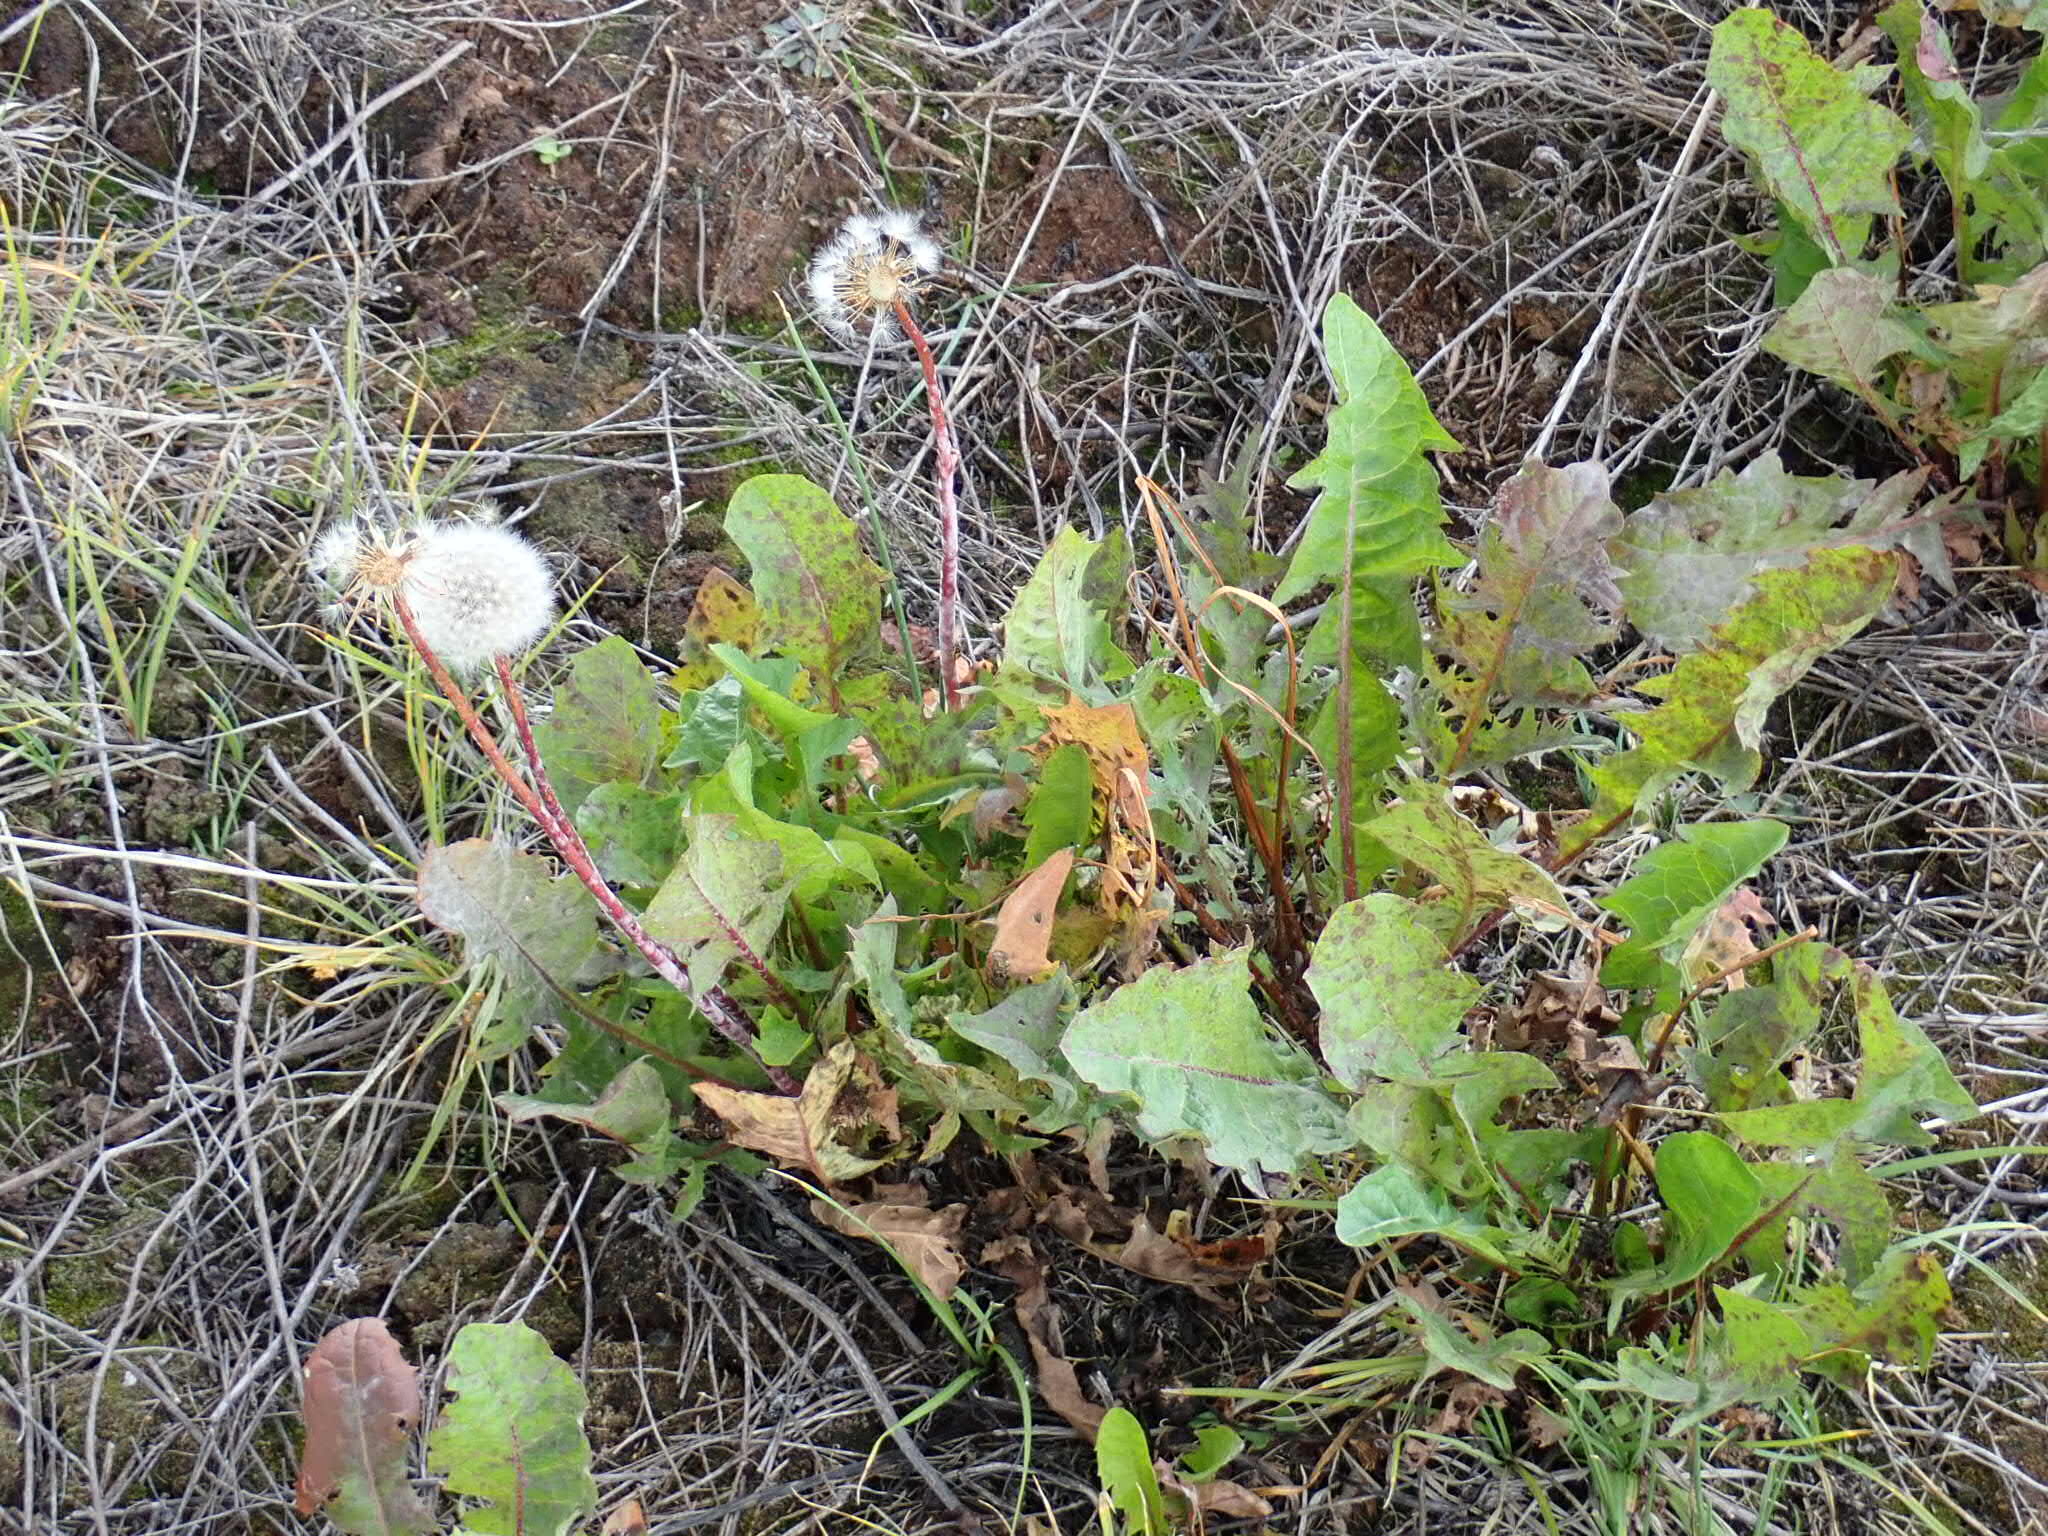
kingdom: Plantae
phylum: Tracheophyta
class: Magnoliopsida
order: Asterales
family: Asteraceae
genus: Taraxacum
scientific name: Taraxacum
